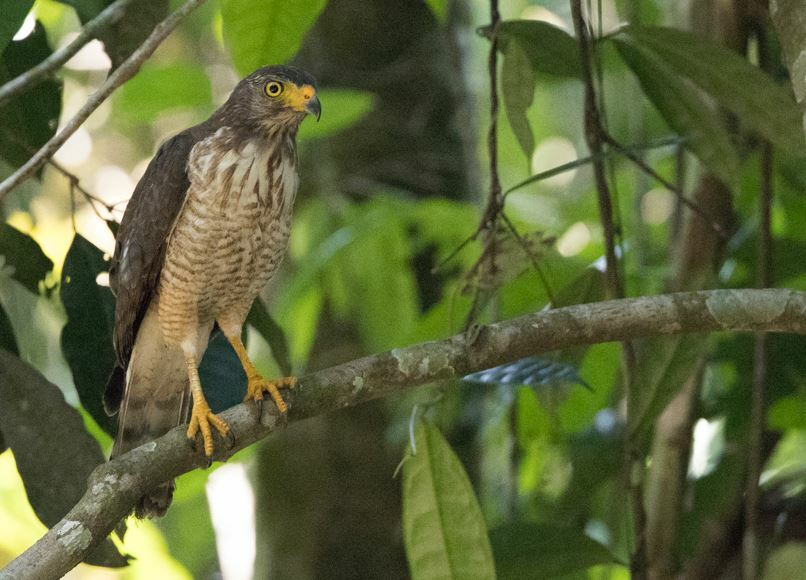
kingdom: Animalia
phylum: Chordata
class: Aves
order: Accipitriformes
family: Accipitridae
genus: Rupornis
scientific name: Rupornis magnirostris
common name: Roadside hawk
